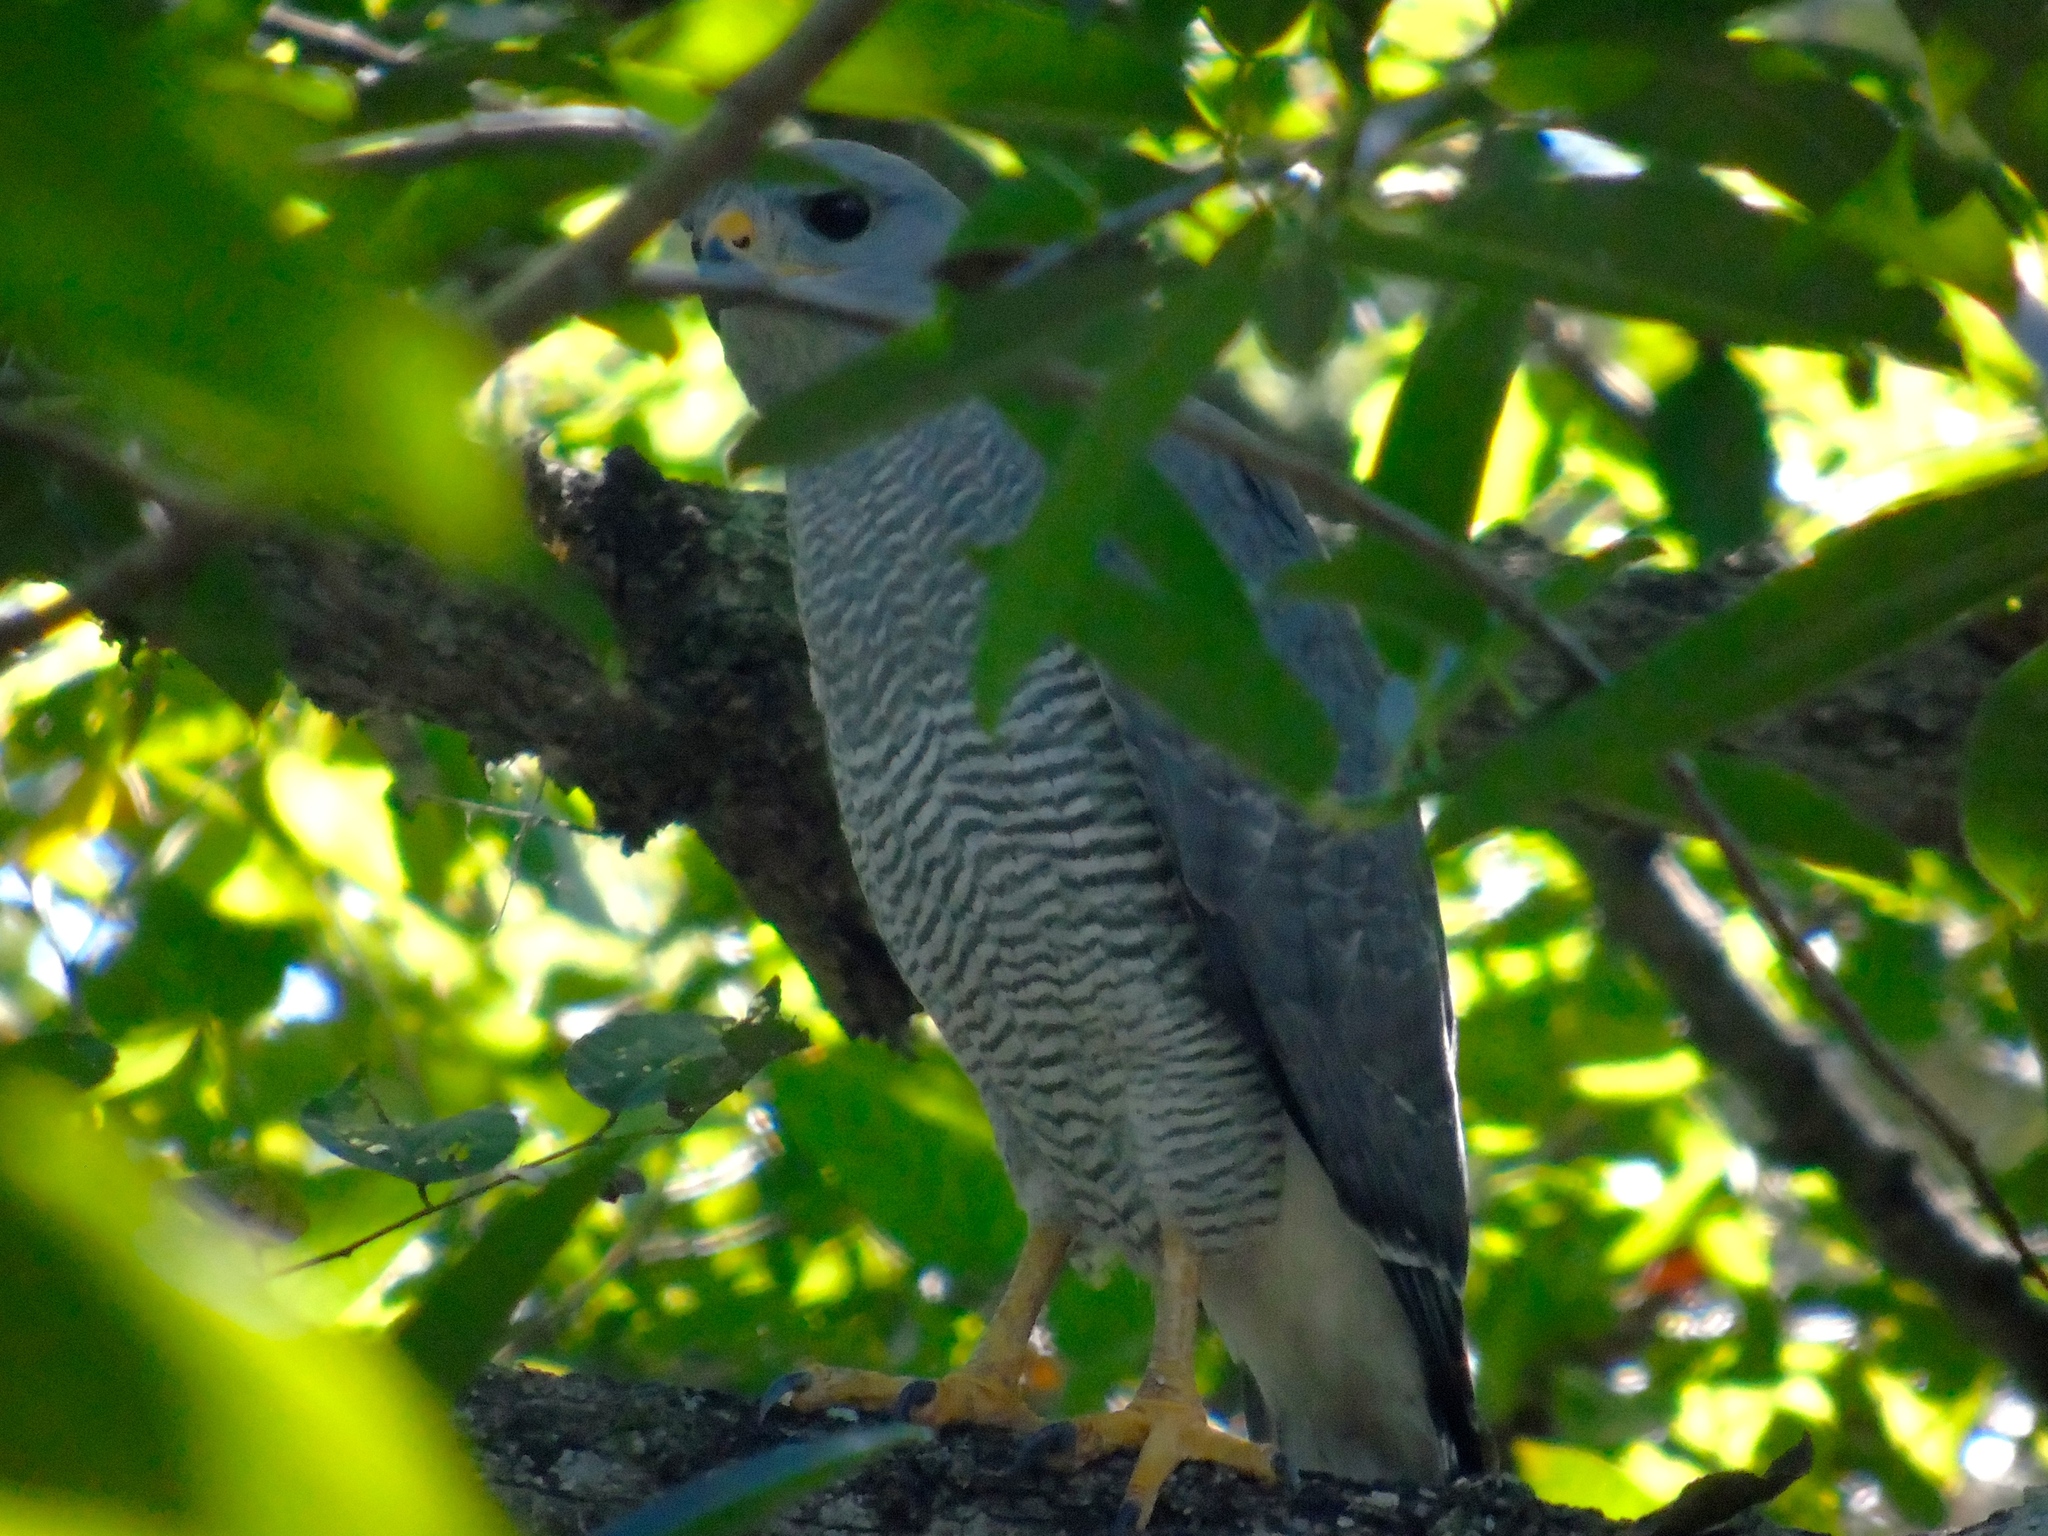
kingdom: Animalia
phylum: Chordata
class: Aves
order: Accipitriformes
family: Accipitridae
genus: Buteo
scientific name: Buteo nitidus
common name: Grey-lined hawk
